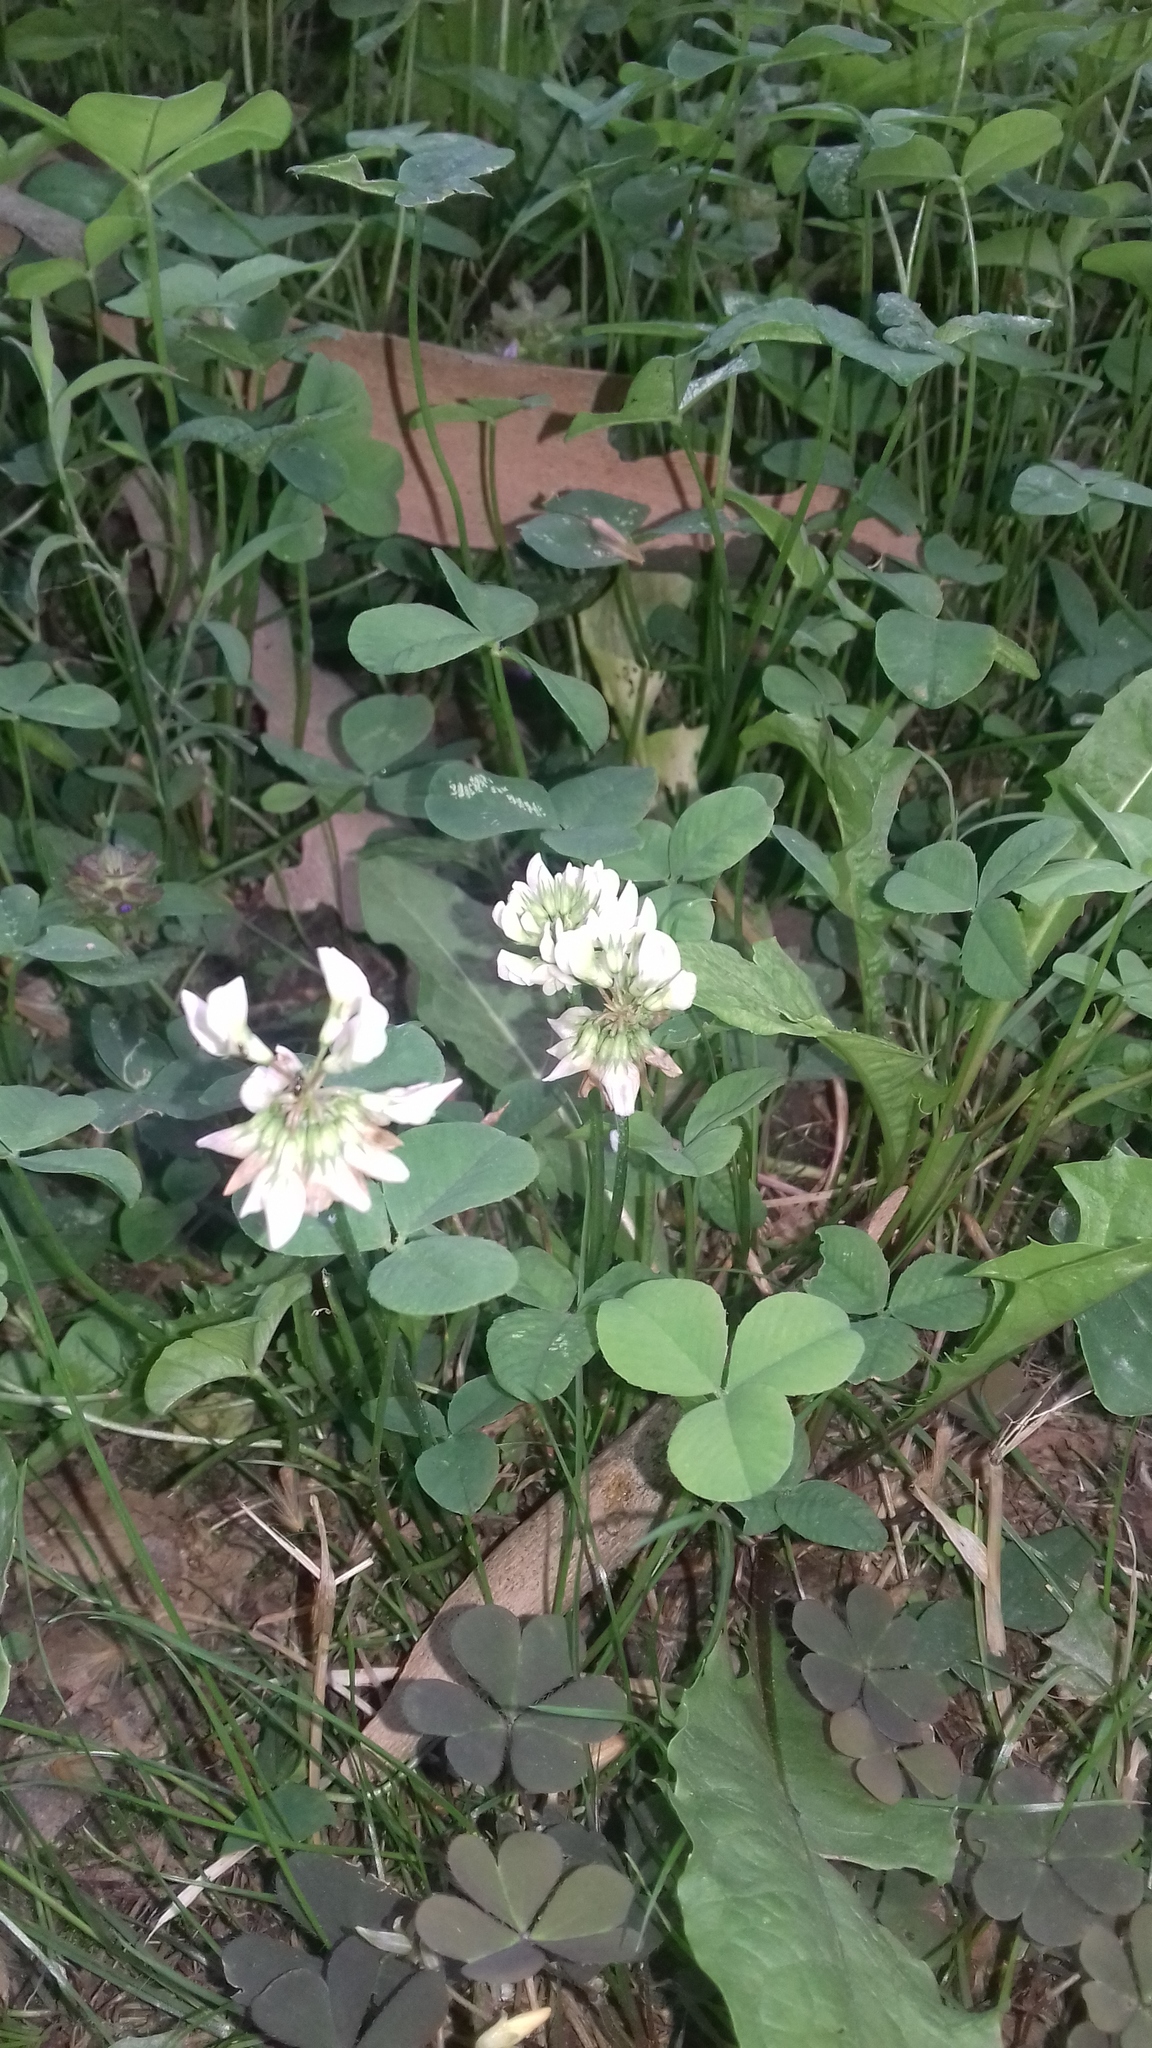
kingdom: Plantae
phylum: Tracheophyta
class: Magnoliopsida
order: Fabales
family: Fabaceae
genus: Trifolium
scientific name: Trifolium repens
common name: White clover
